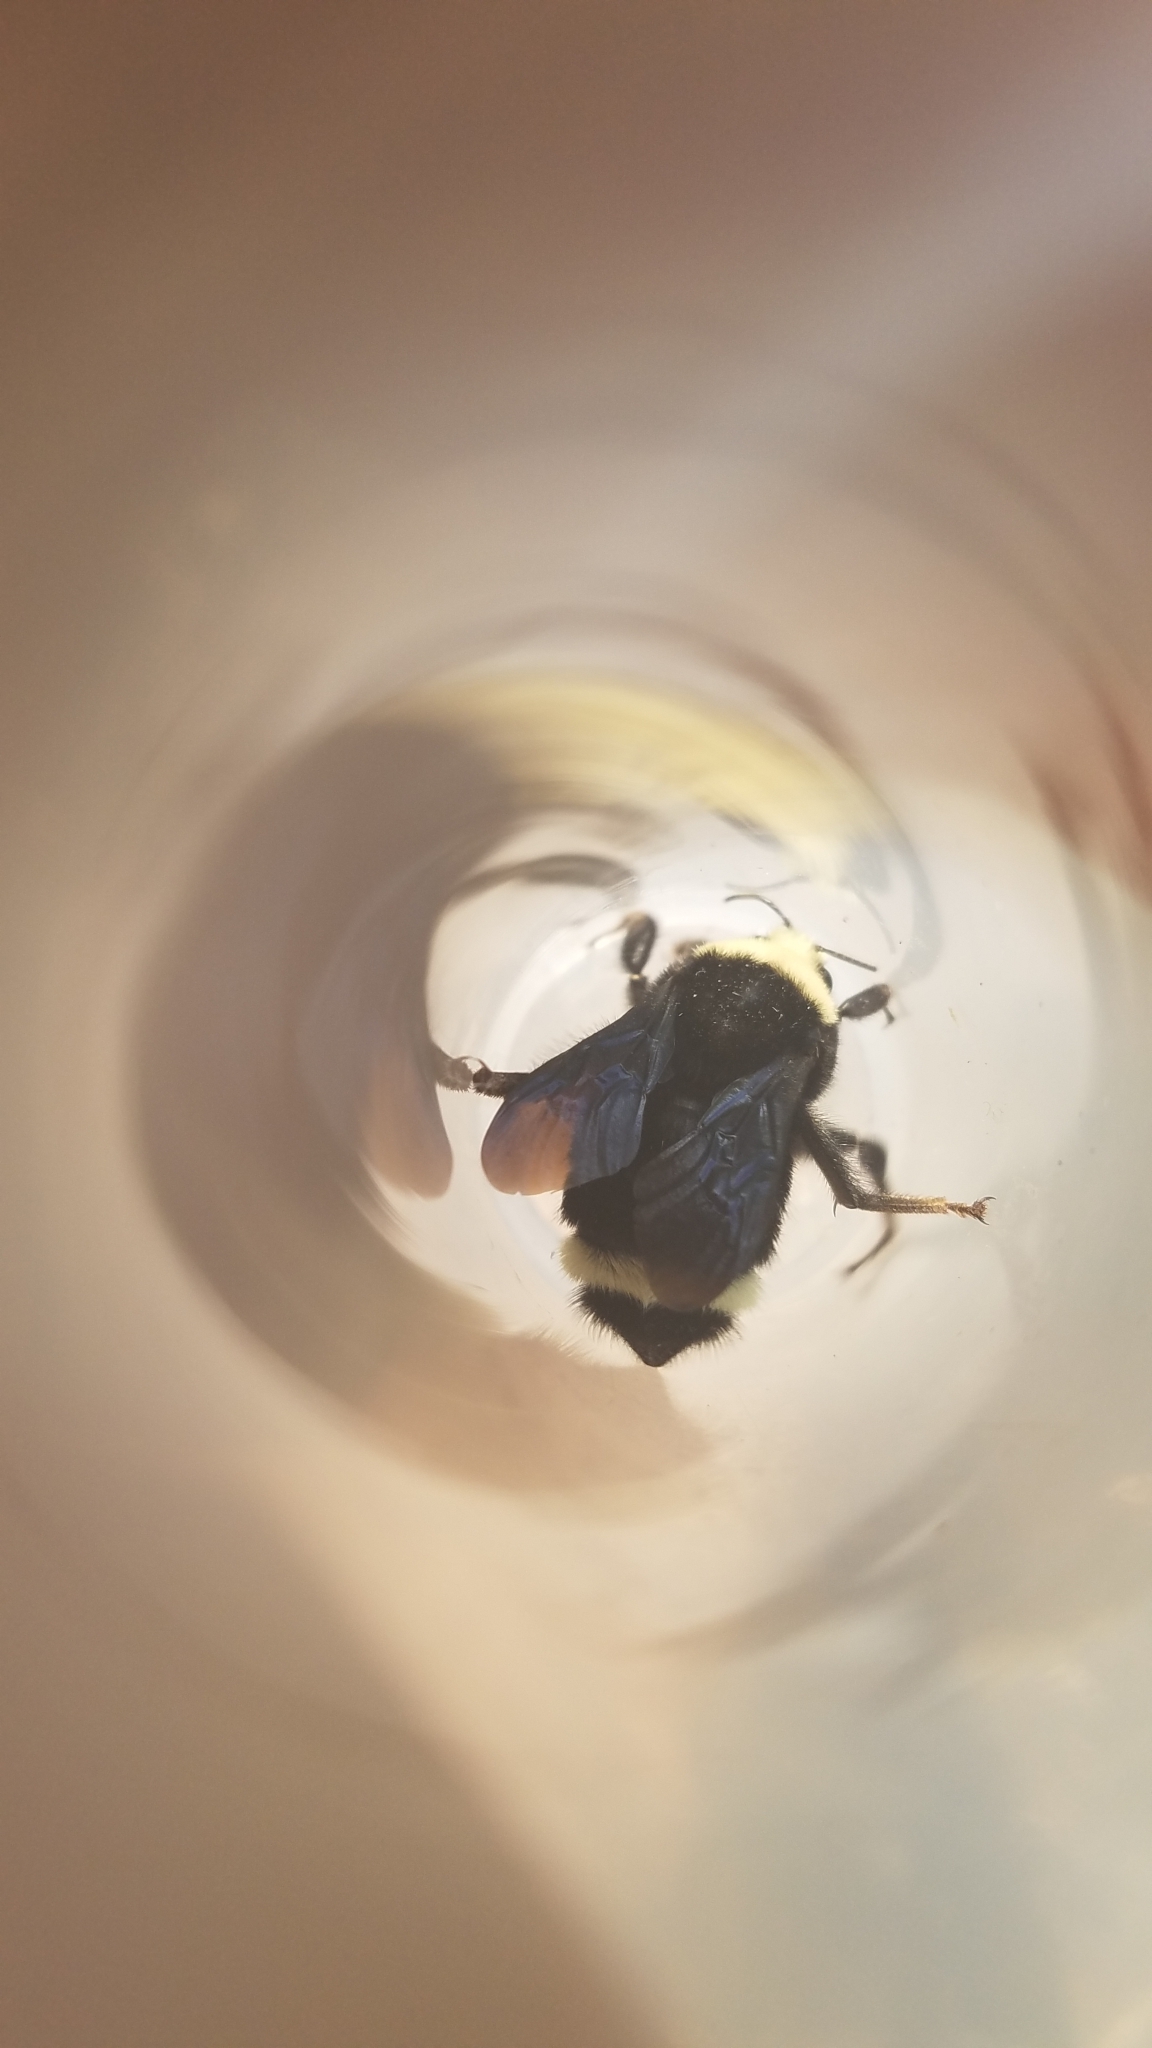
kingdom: Animalia
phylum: Arthropoda
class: Insecta
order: Hymenoptera
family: Apidae
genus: Bombus
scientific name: Bombus vosnesenskii
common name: Vosnesensky bumble bee
